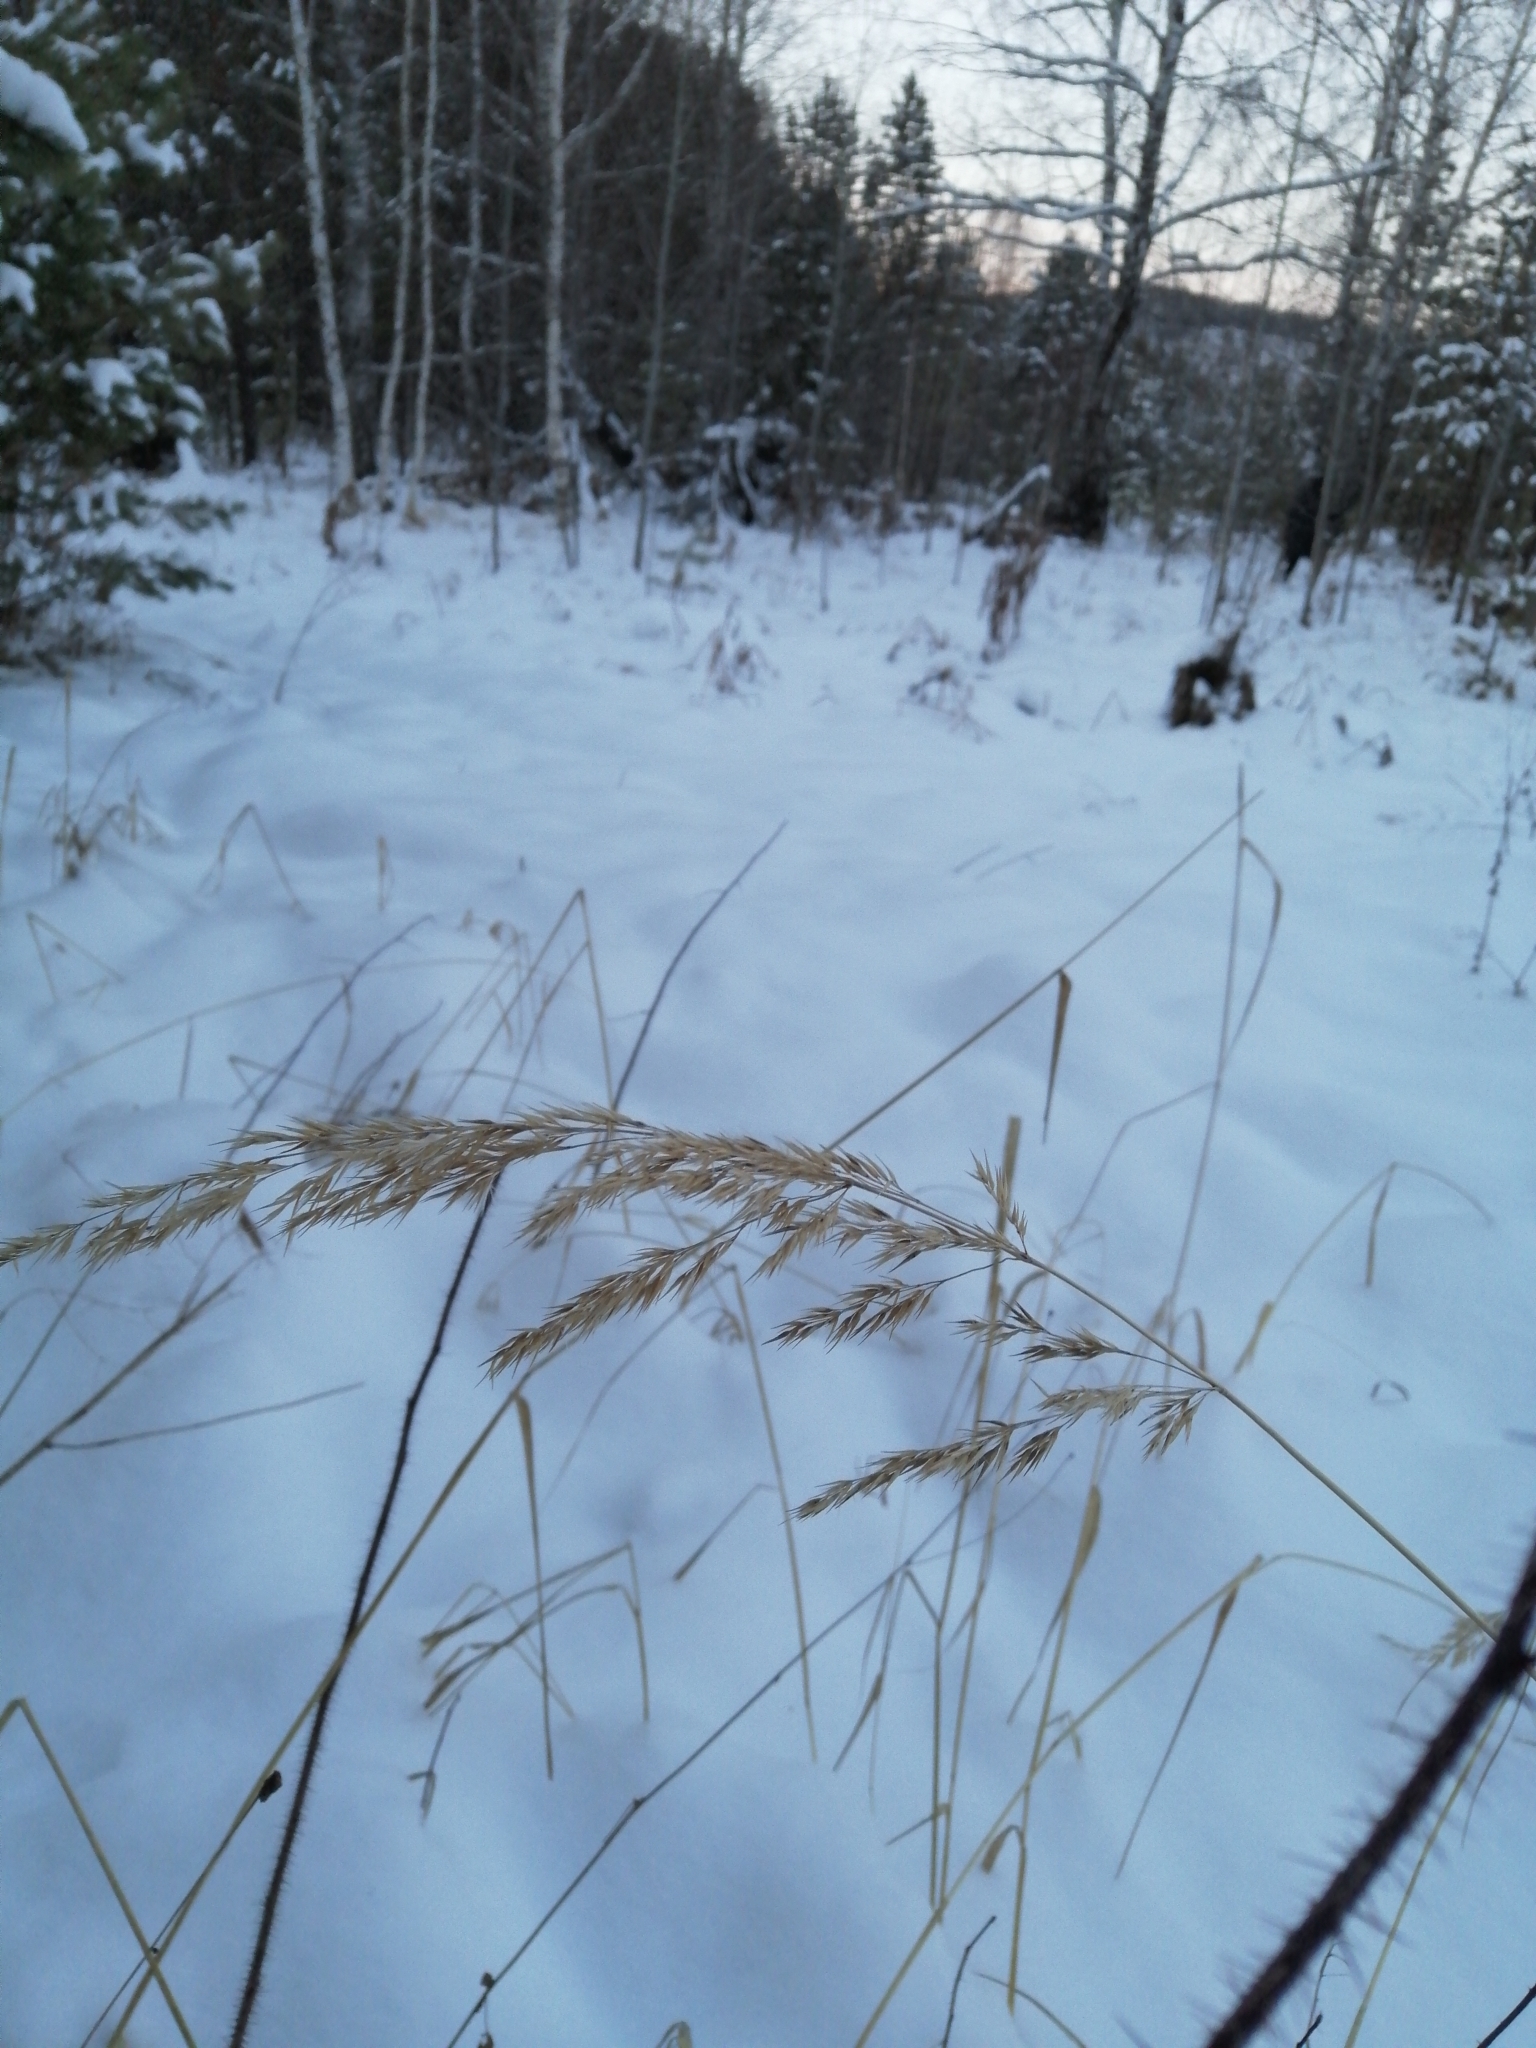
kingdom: Plantae
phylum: Tracheophyta
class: Liliopsida
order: Poales
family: Poaceae
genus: Calamagrostis
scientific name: Calamagrostis purpurea
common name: Scandinavian small-reed
